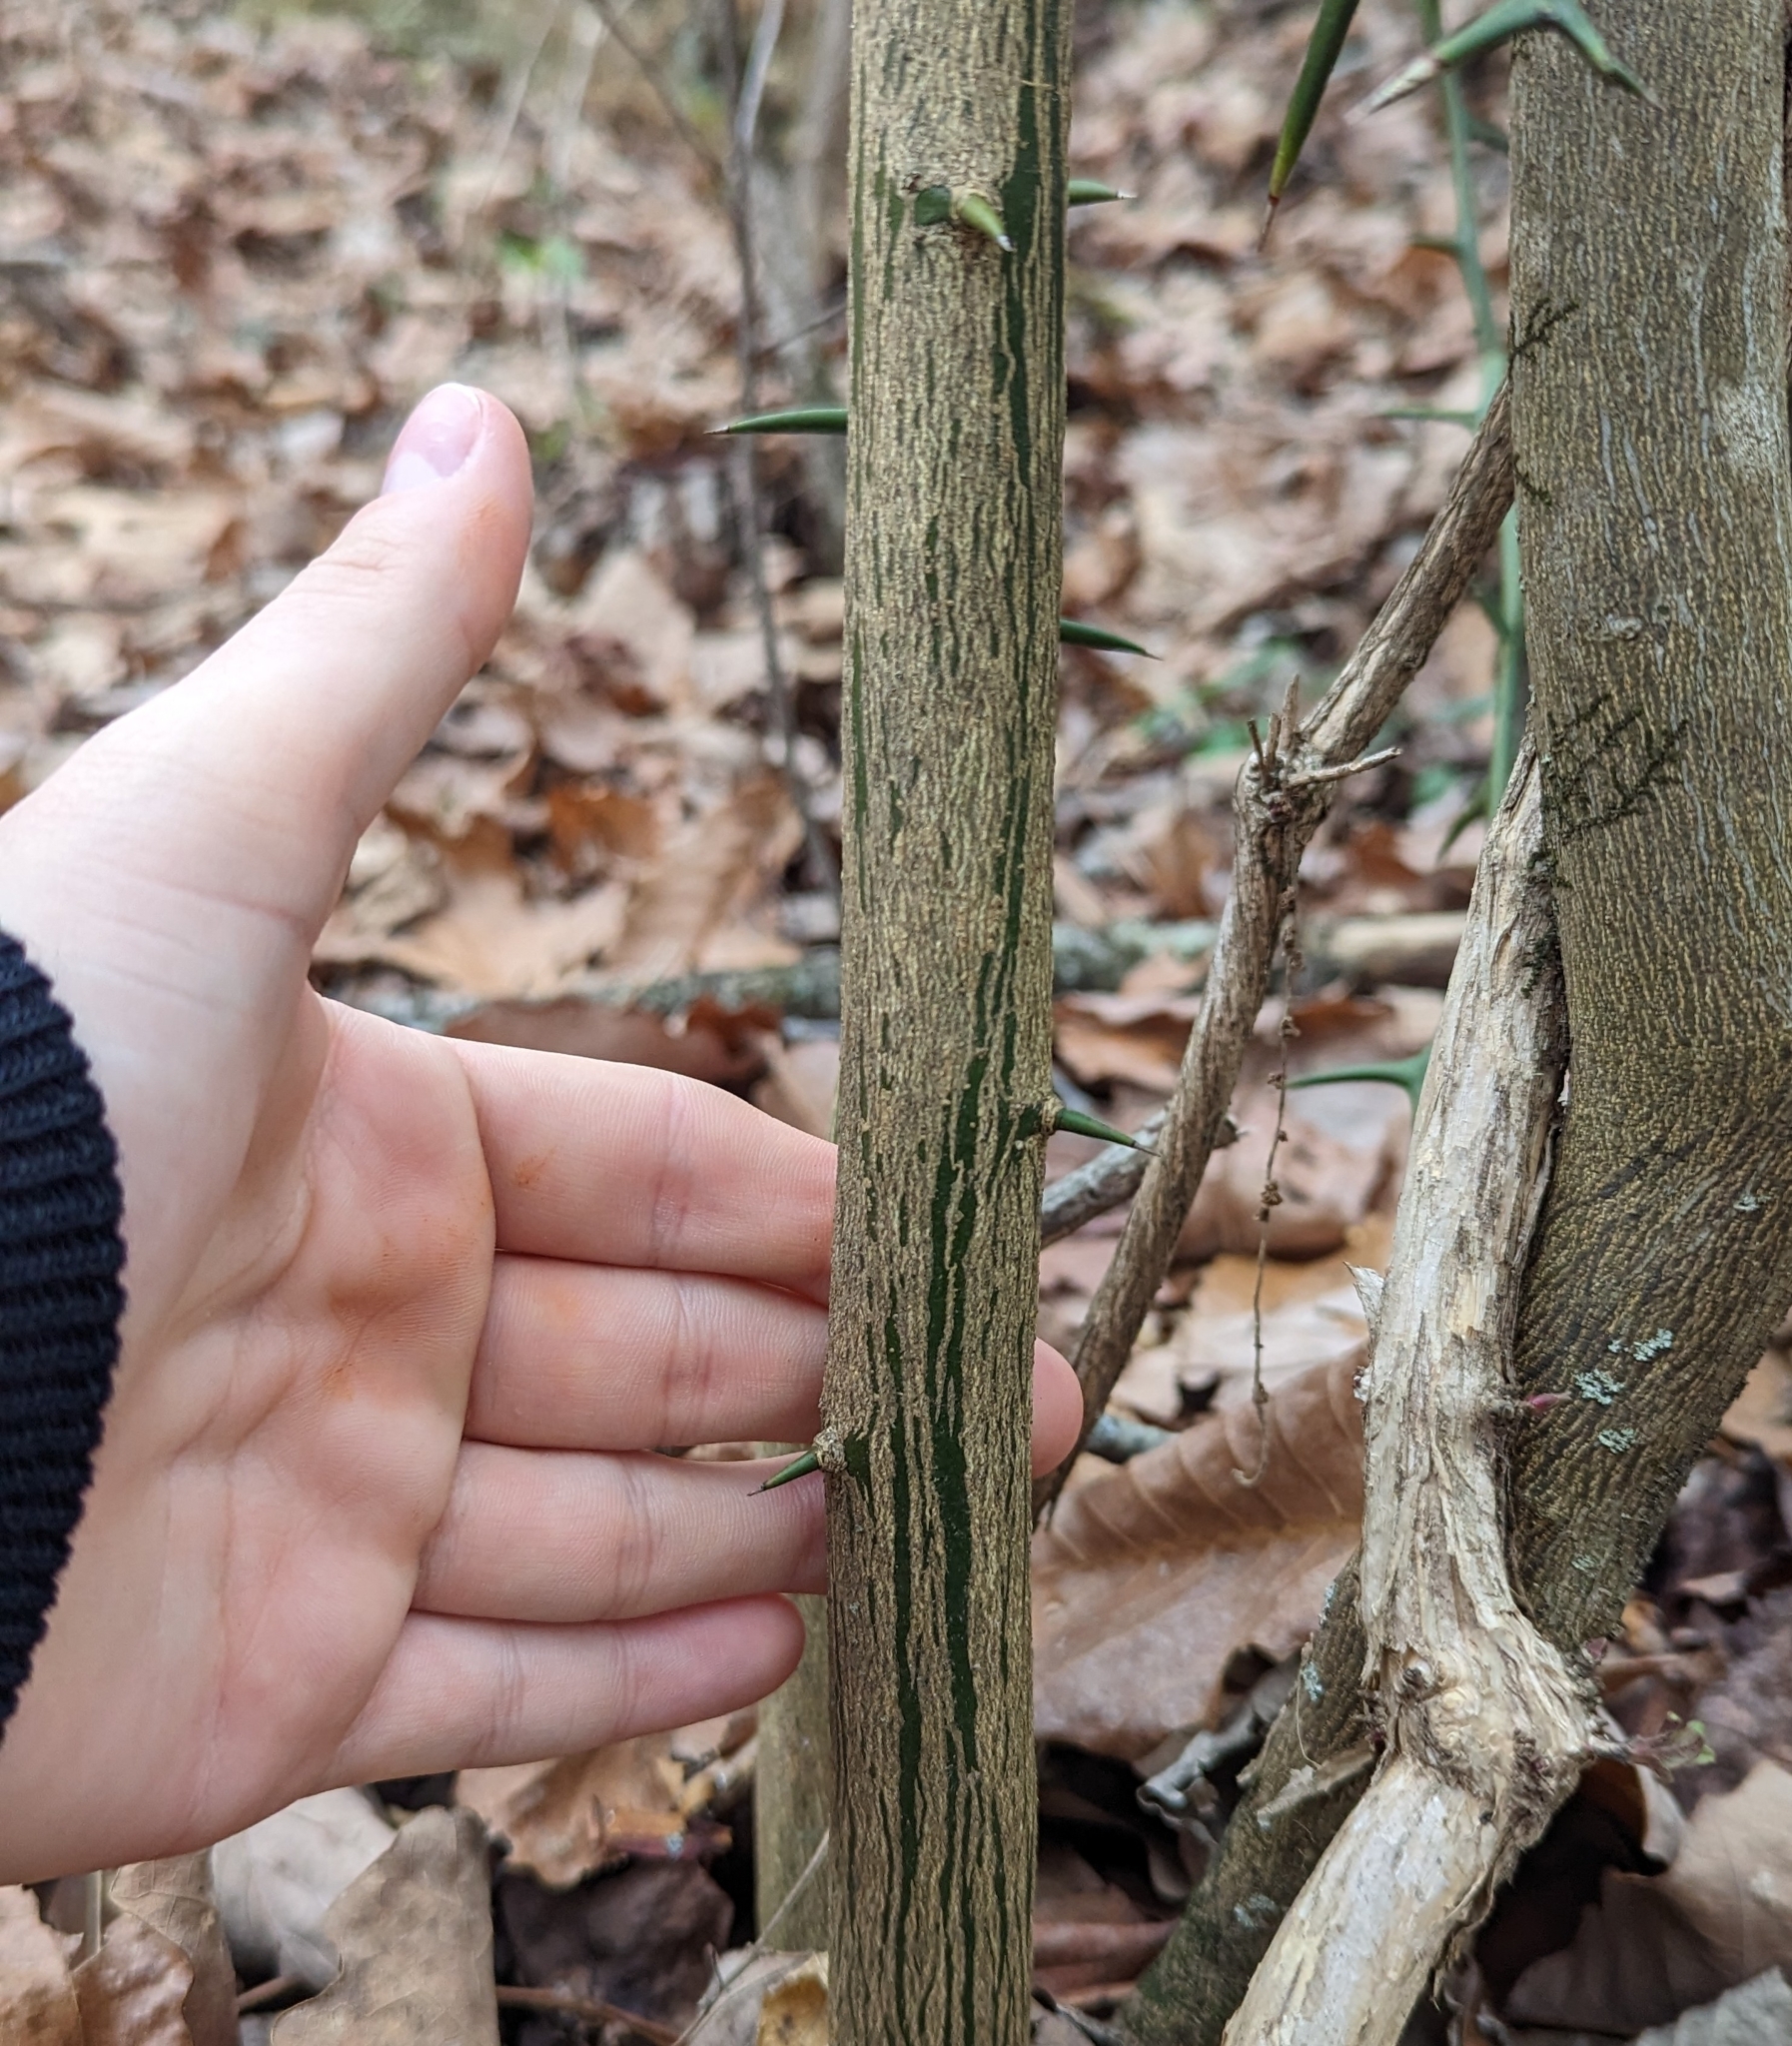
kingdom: Plantae
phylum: Tracheophyta
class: Magnoliopsida
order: Sapindales
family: Rutaceae
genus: Citrus
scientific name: Citrus trifoliata
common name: Japanese bitter-orange
